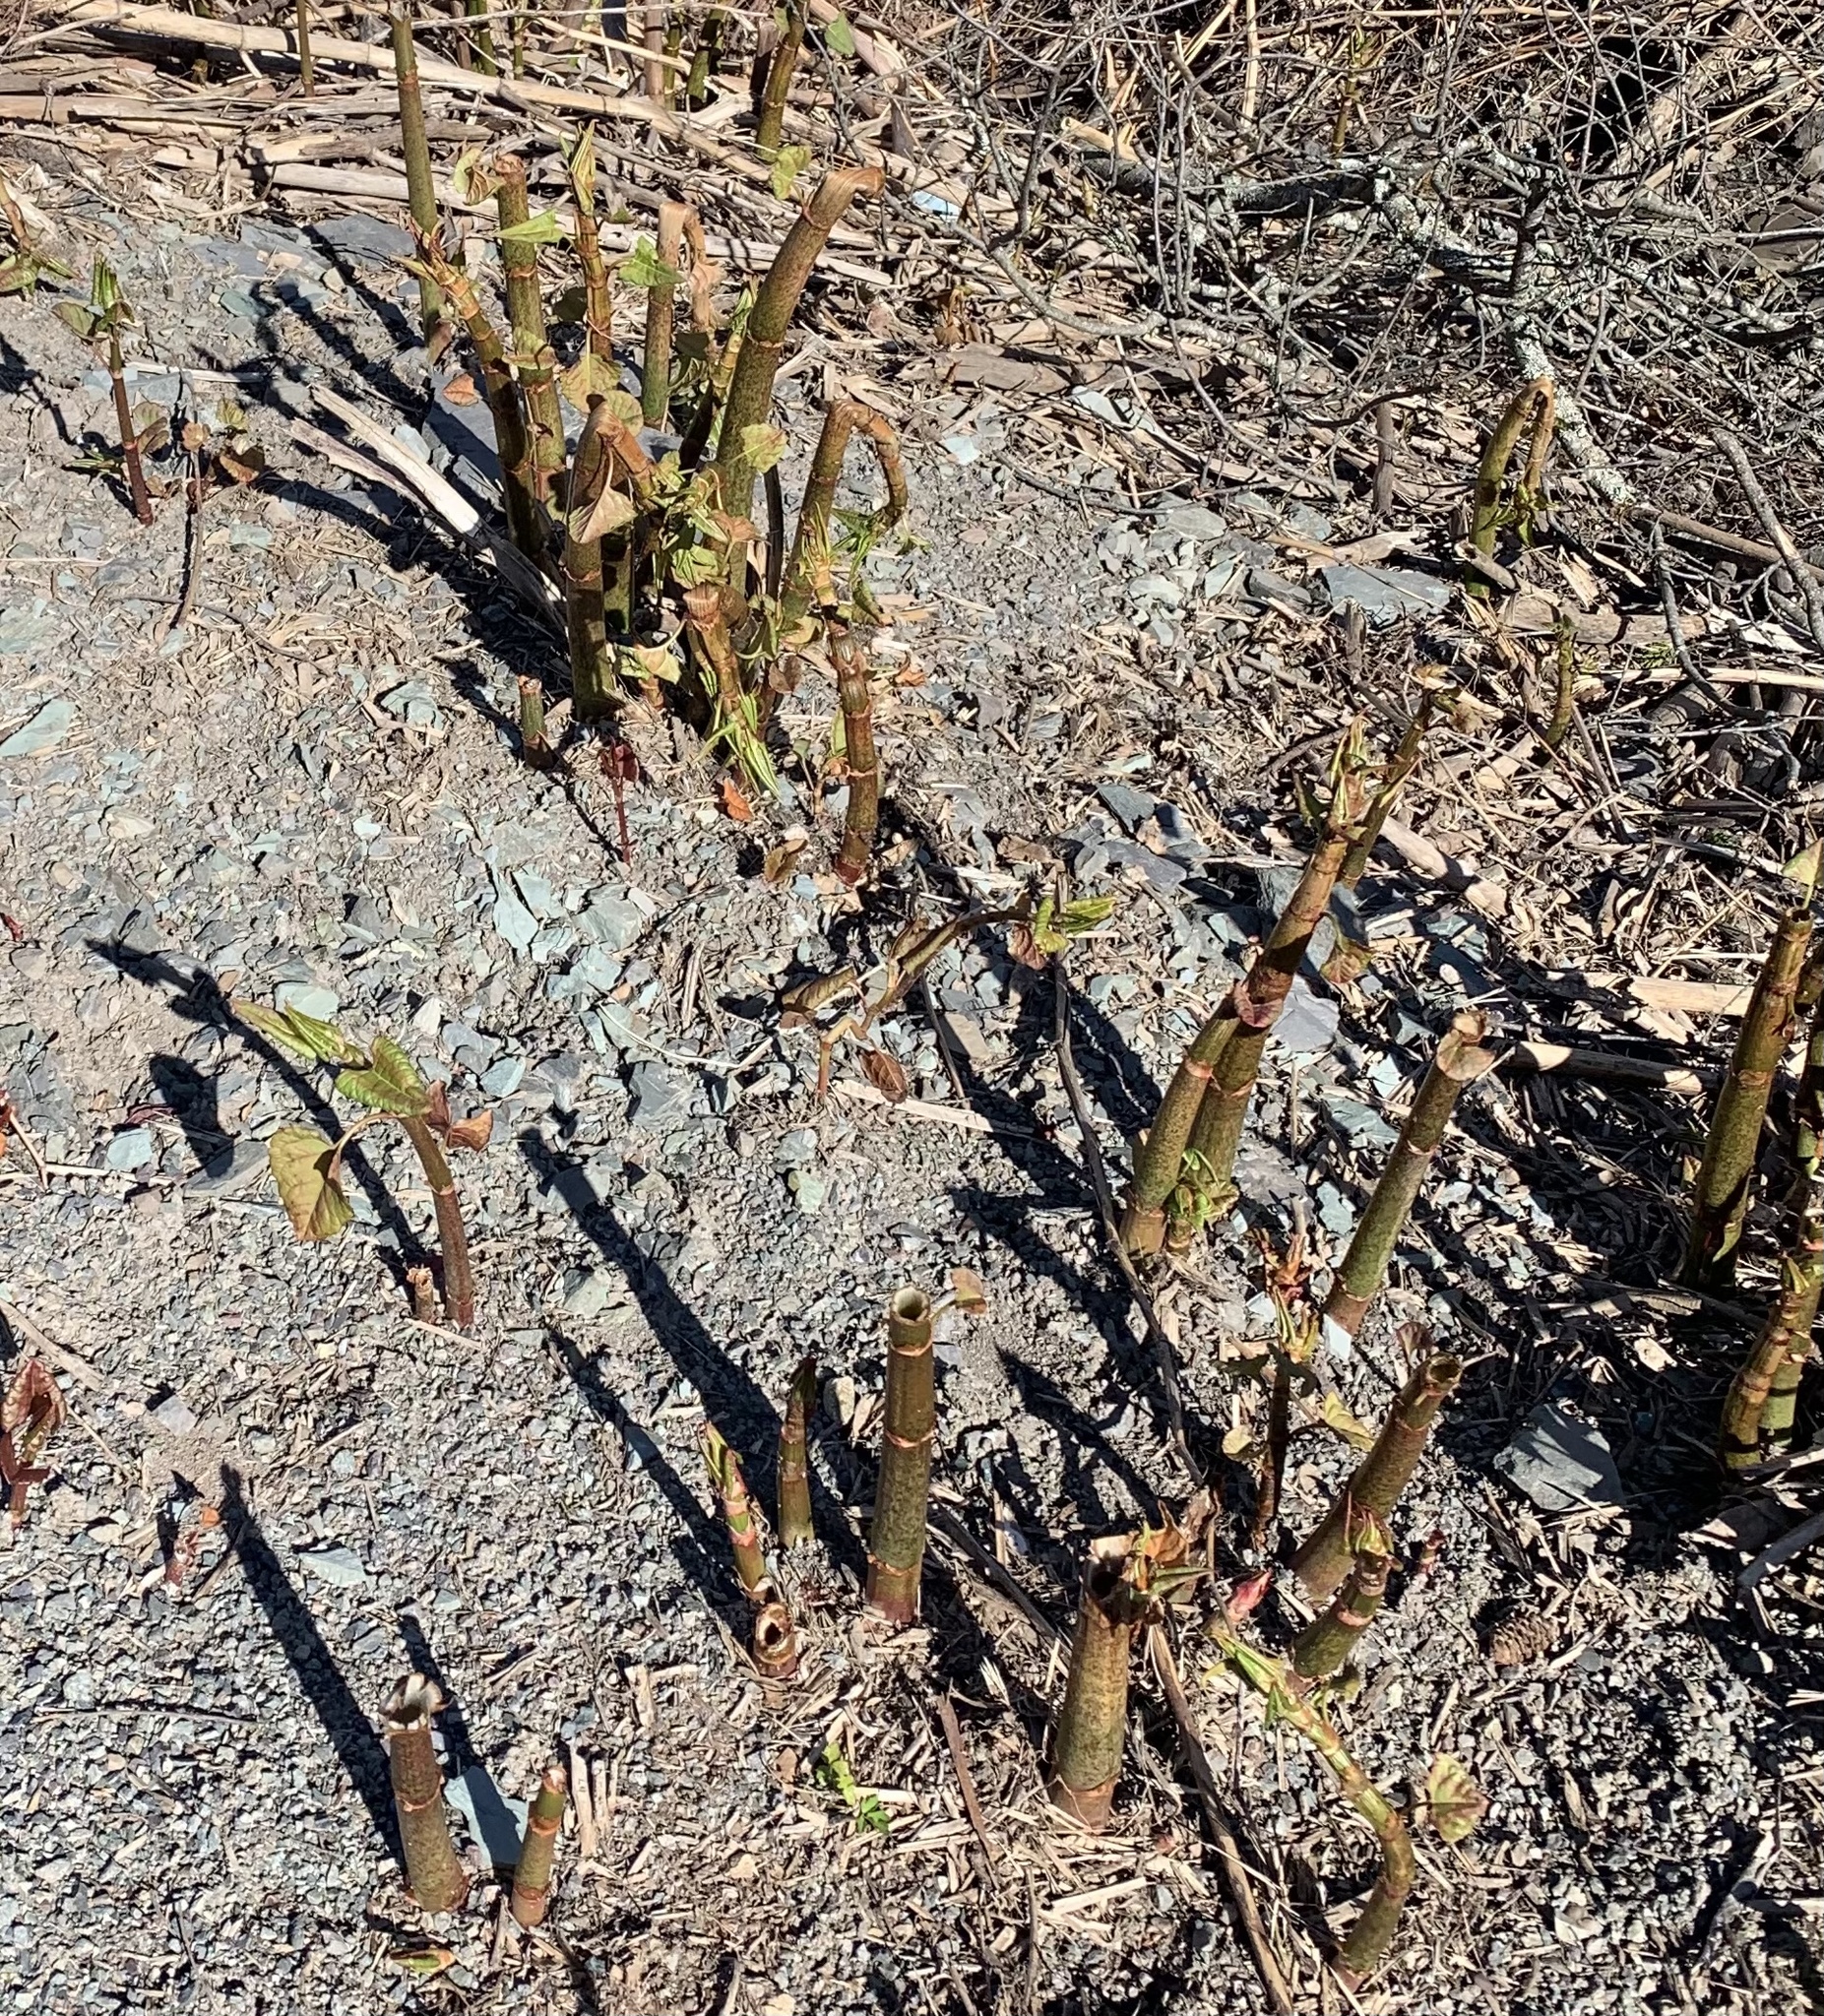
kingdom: Plantae
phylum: Tracheophyta
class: Magnoliopsida
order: Caryophyllales
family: Polygonaceae
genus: Reynoutria
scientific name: Reynoutria japonica
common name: Japanese knotweed
